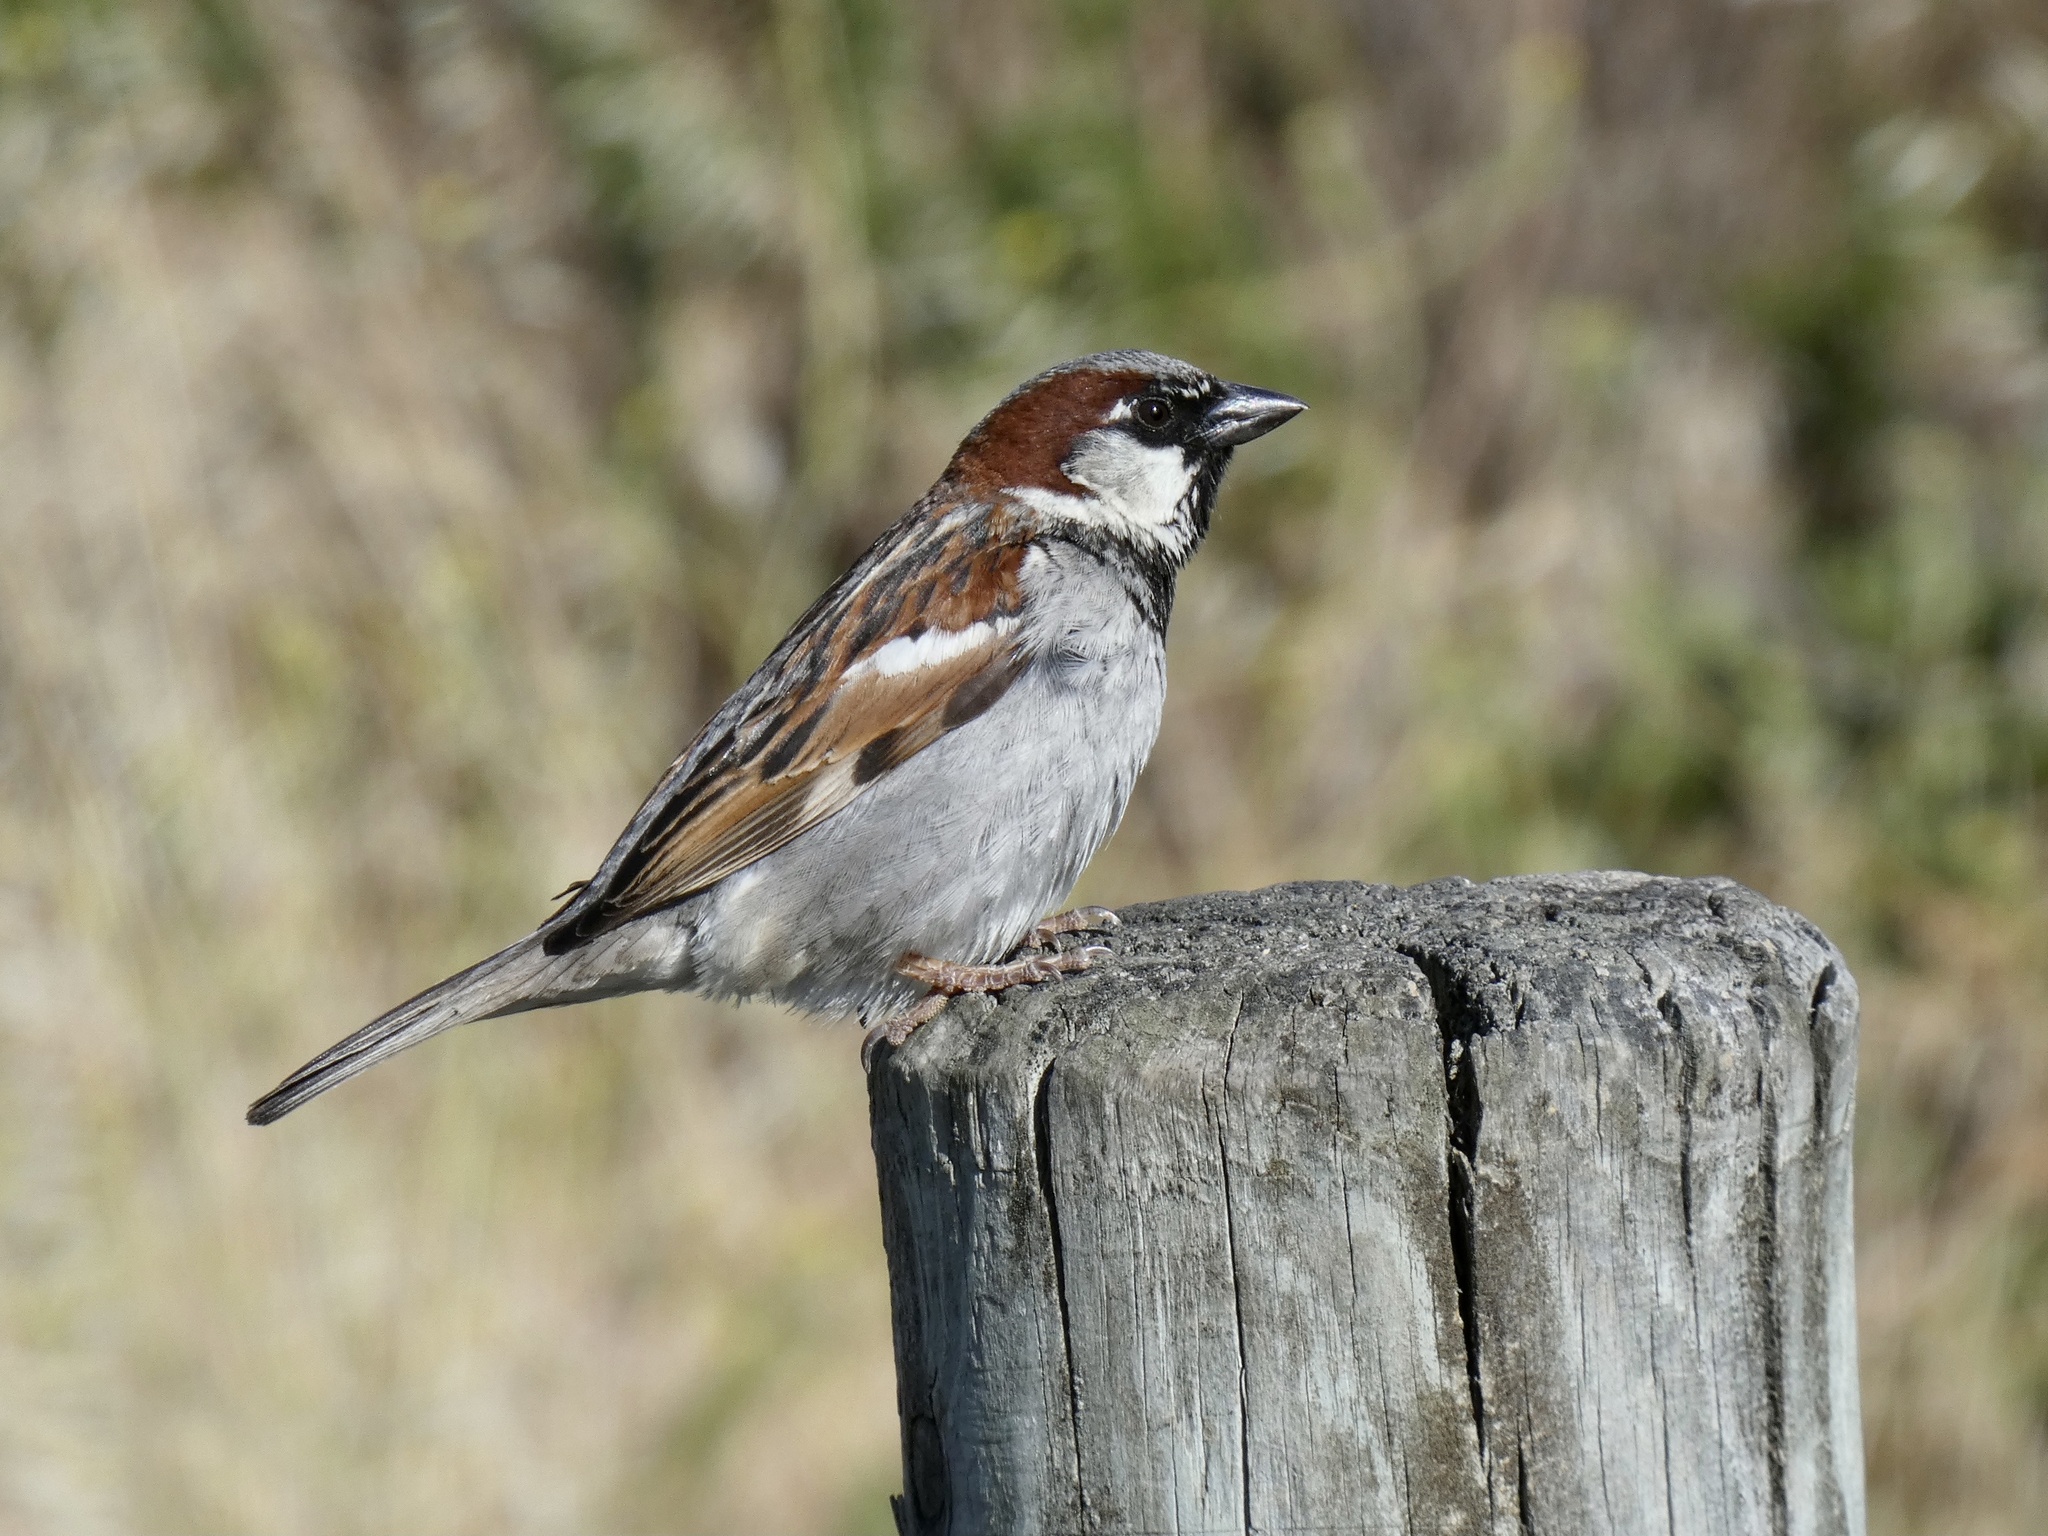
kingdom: Animalia
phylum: Chordata
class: Aves
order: Passeriformes
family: Passeridae
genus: Passer
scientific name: Passer domesticus
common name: House sparrow
